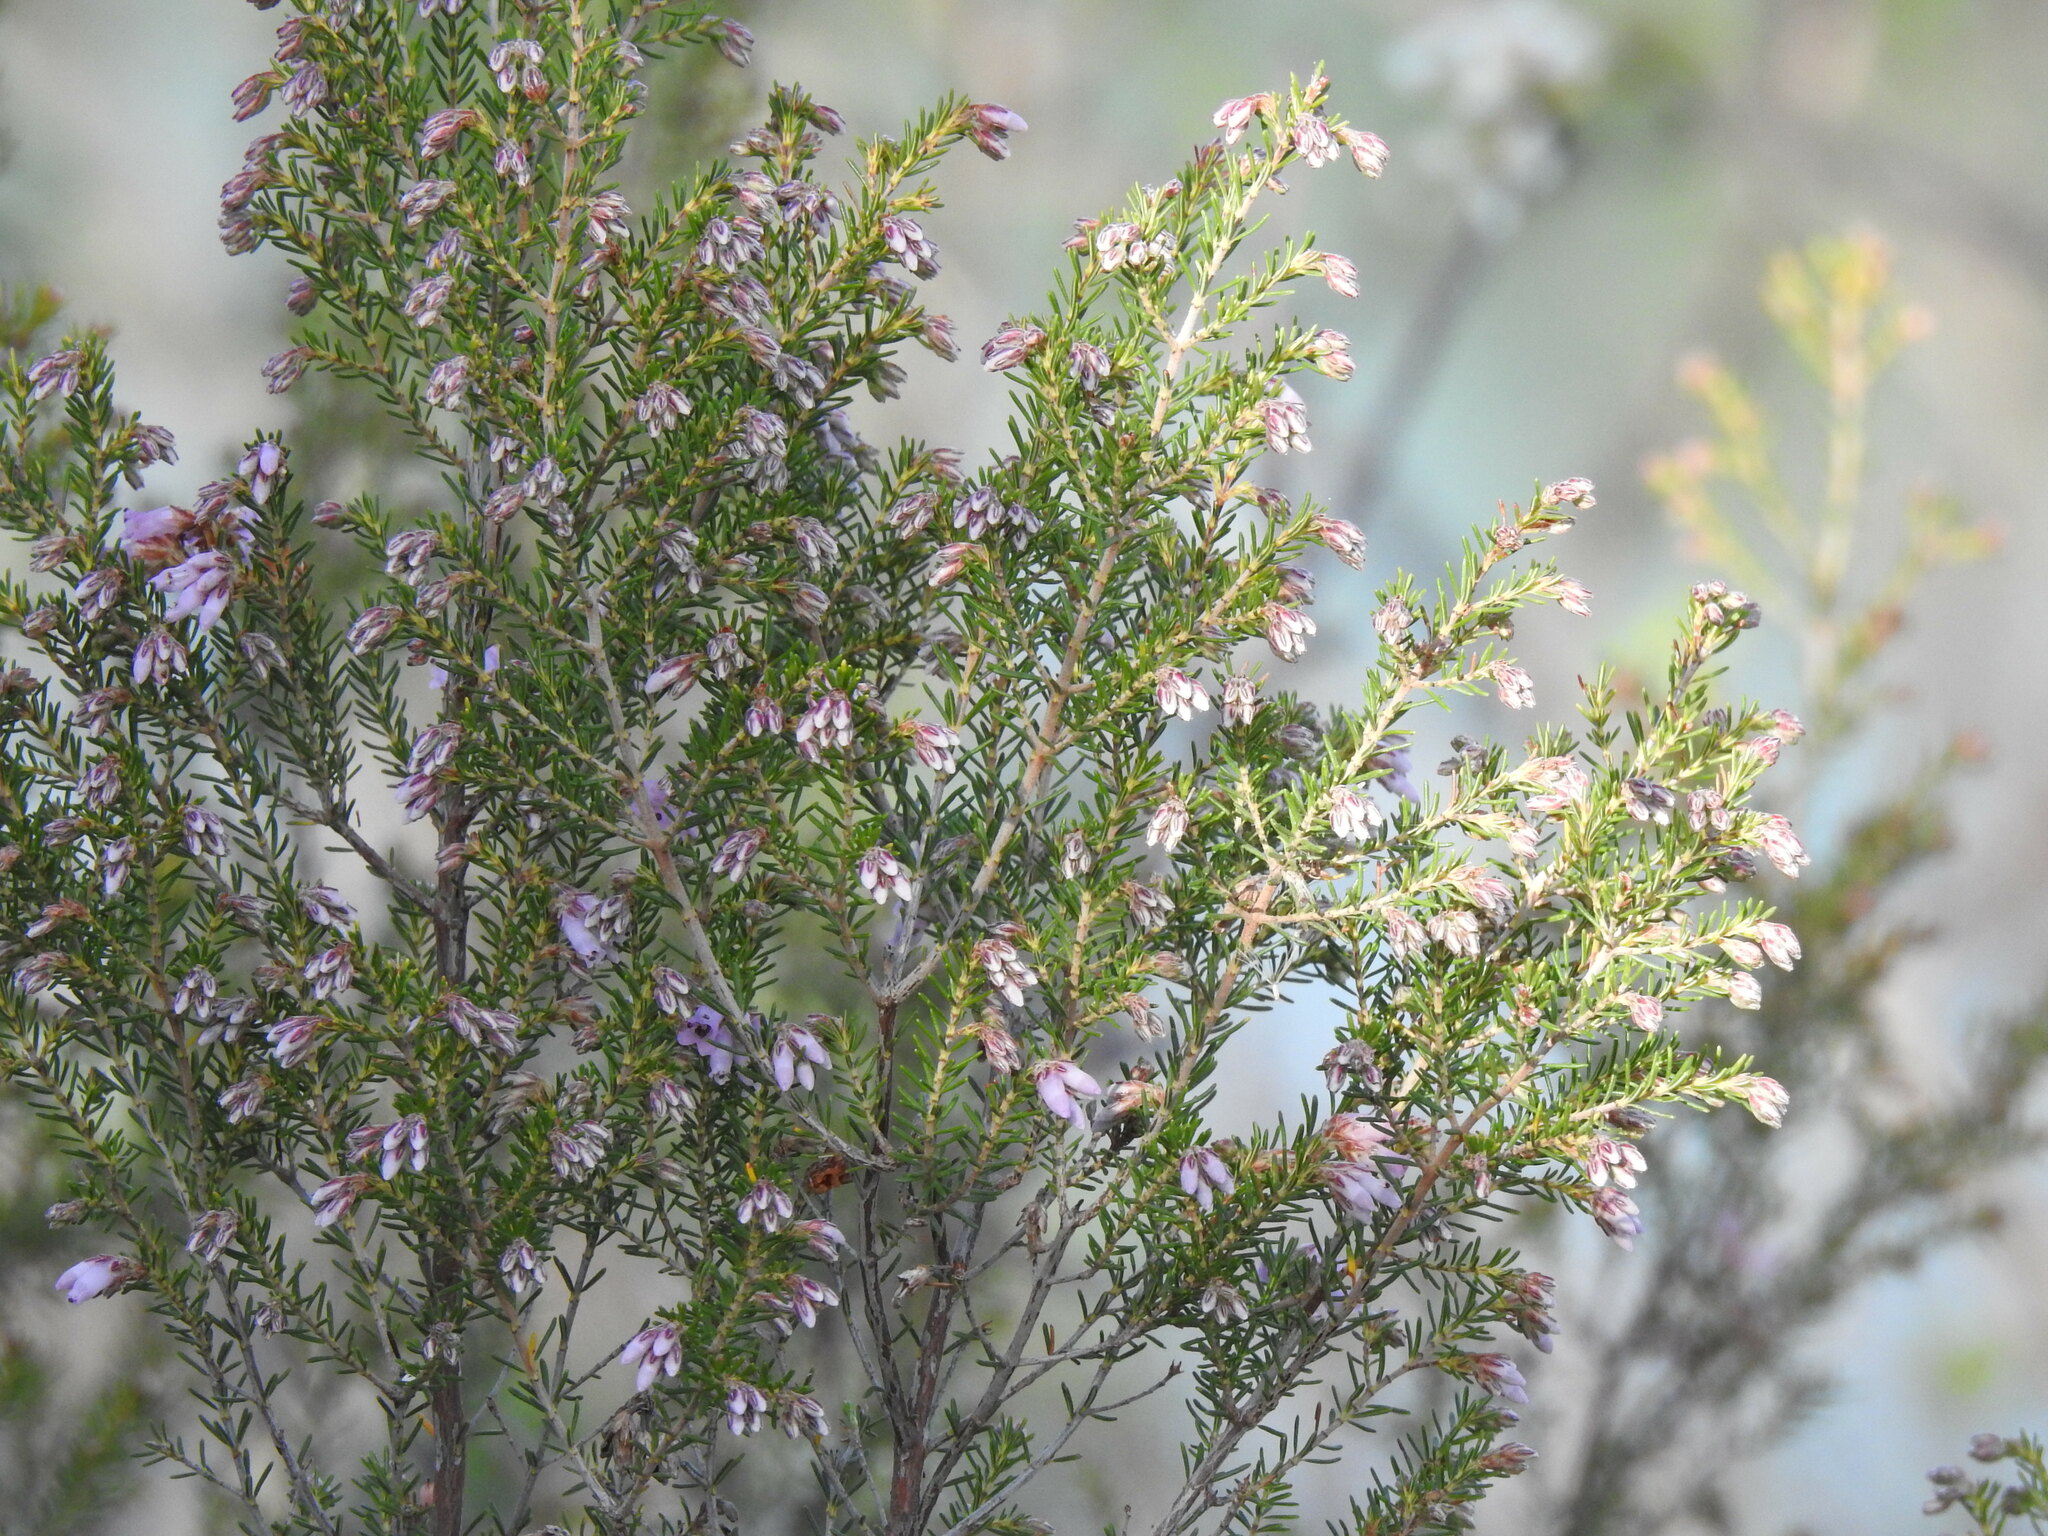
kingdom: Plantae
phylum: Tracheophyta
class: Magnoliopsida
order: Ericales
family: Ericaceae
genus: Erica
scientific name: Erica australis
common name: Spanish heath
